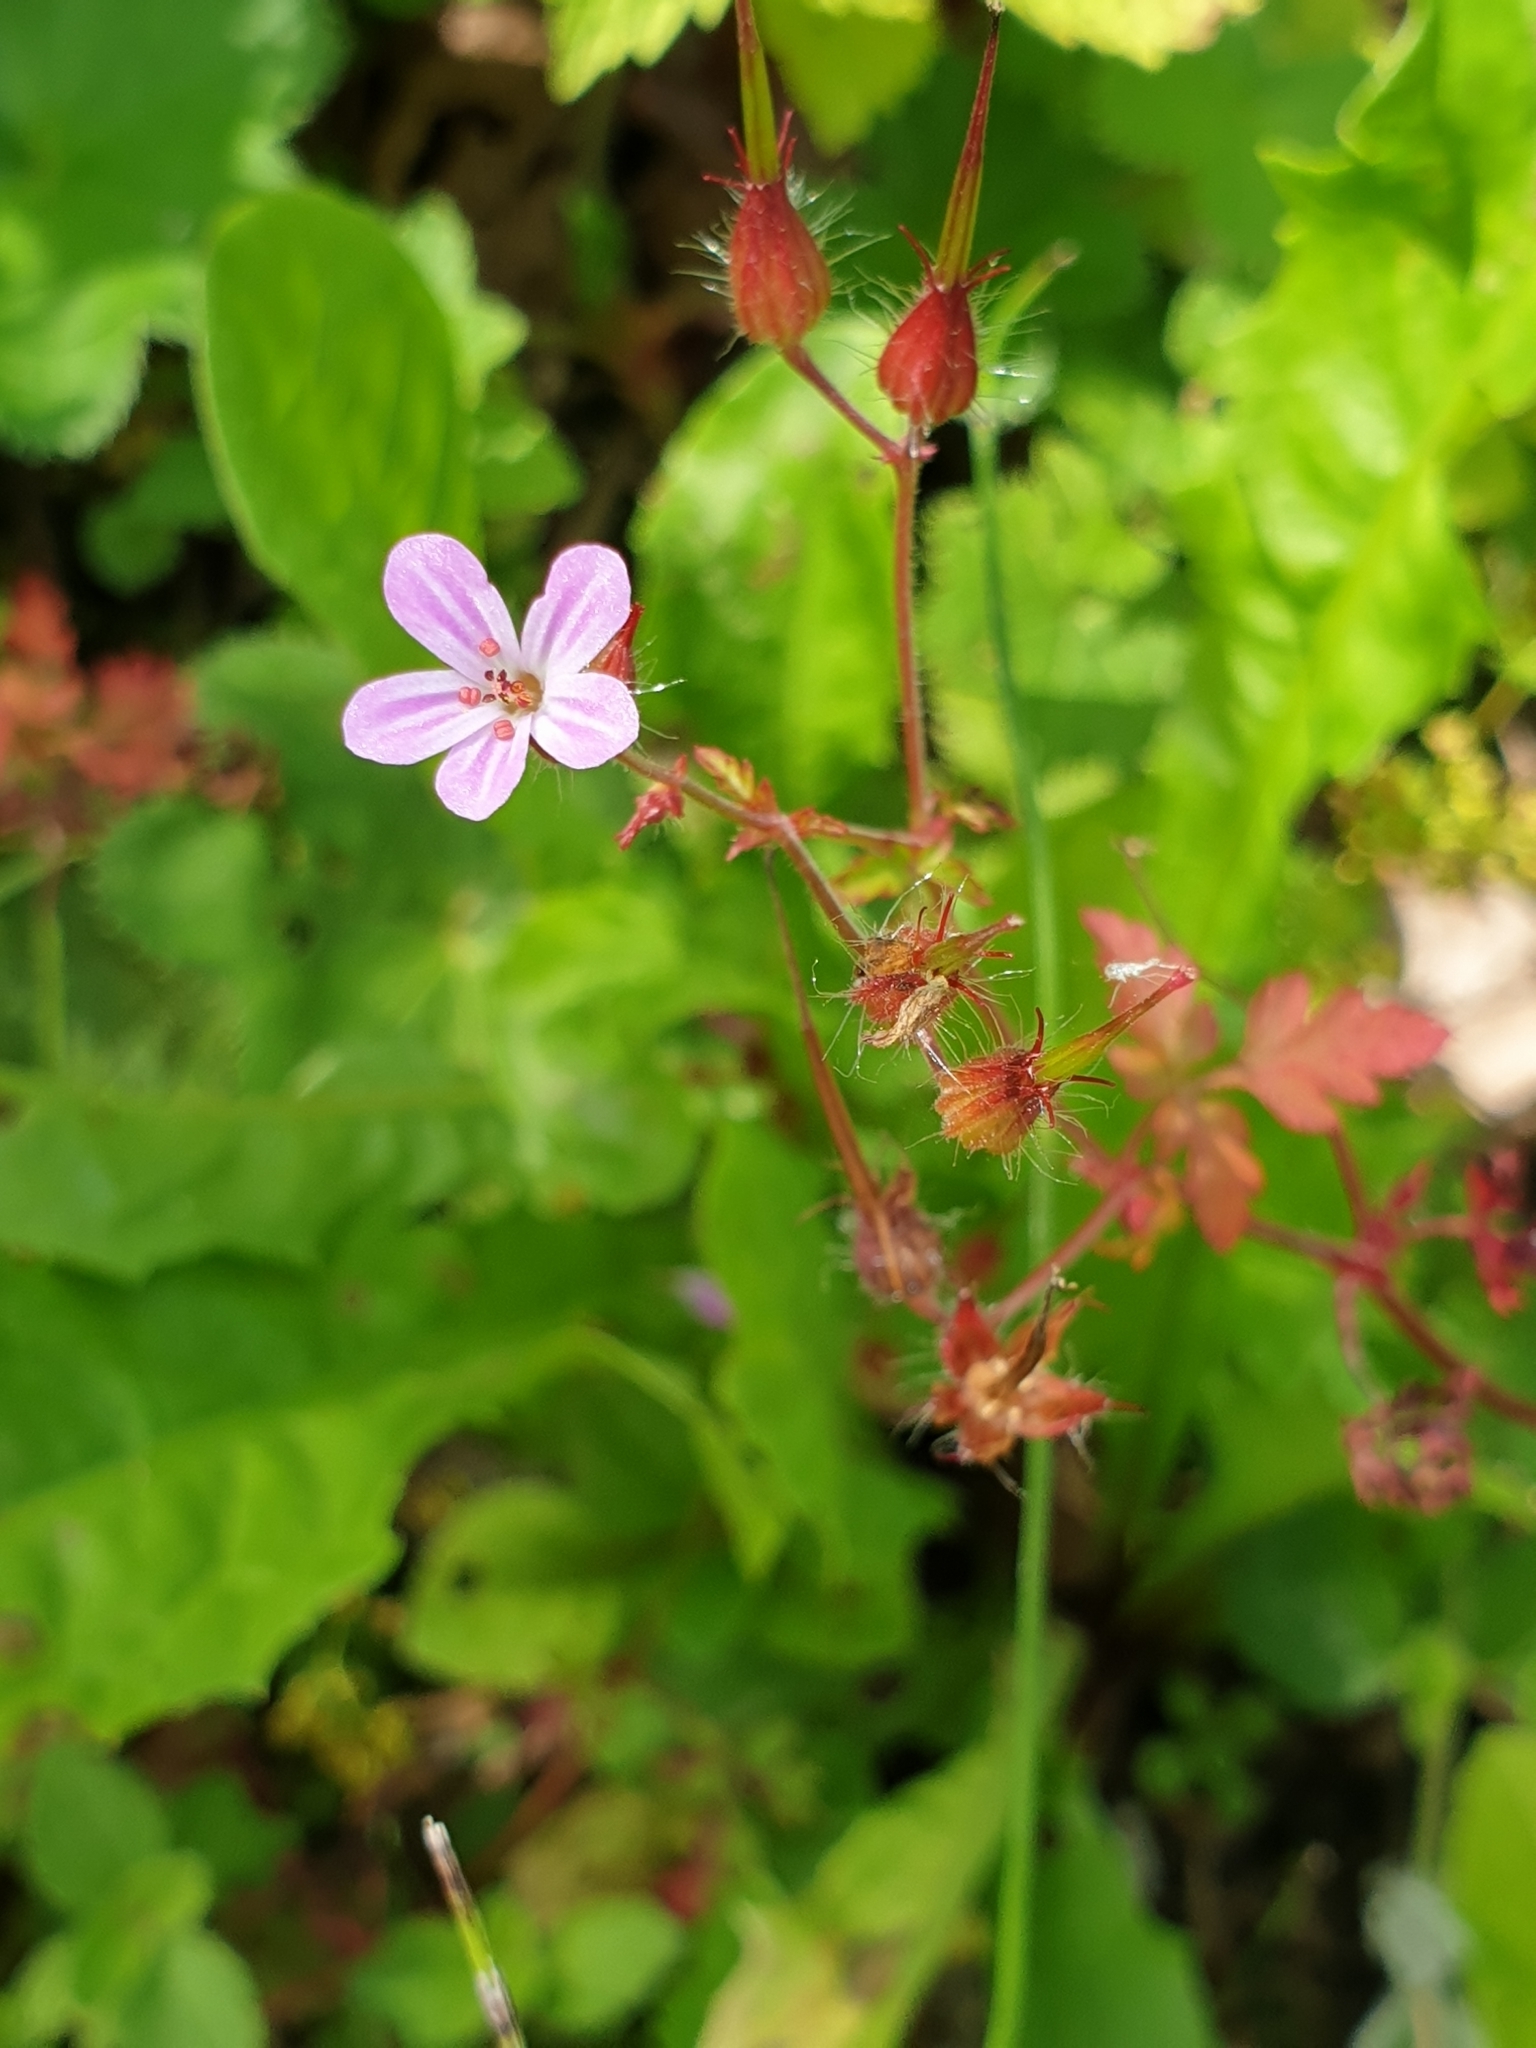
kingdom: Plantae
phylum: Tracheophyta
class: Magnoliopsida
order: Geraniales
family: Geraniaceae
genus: Geranium
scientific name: Geranium robertianum
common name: Herb-robert
